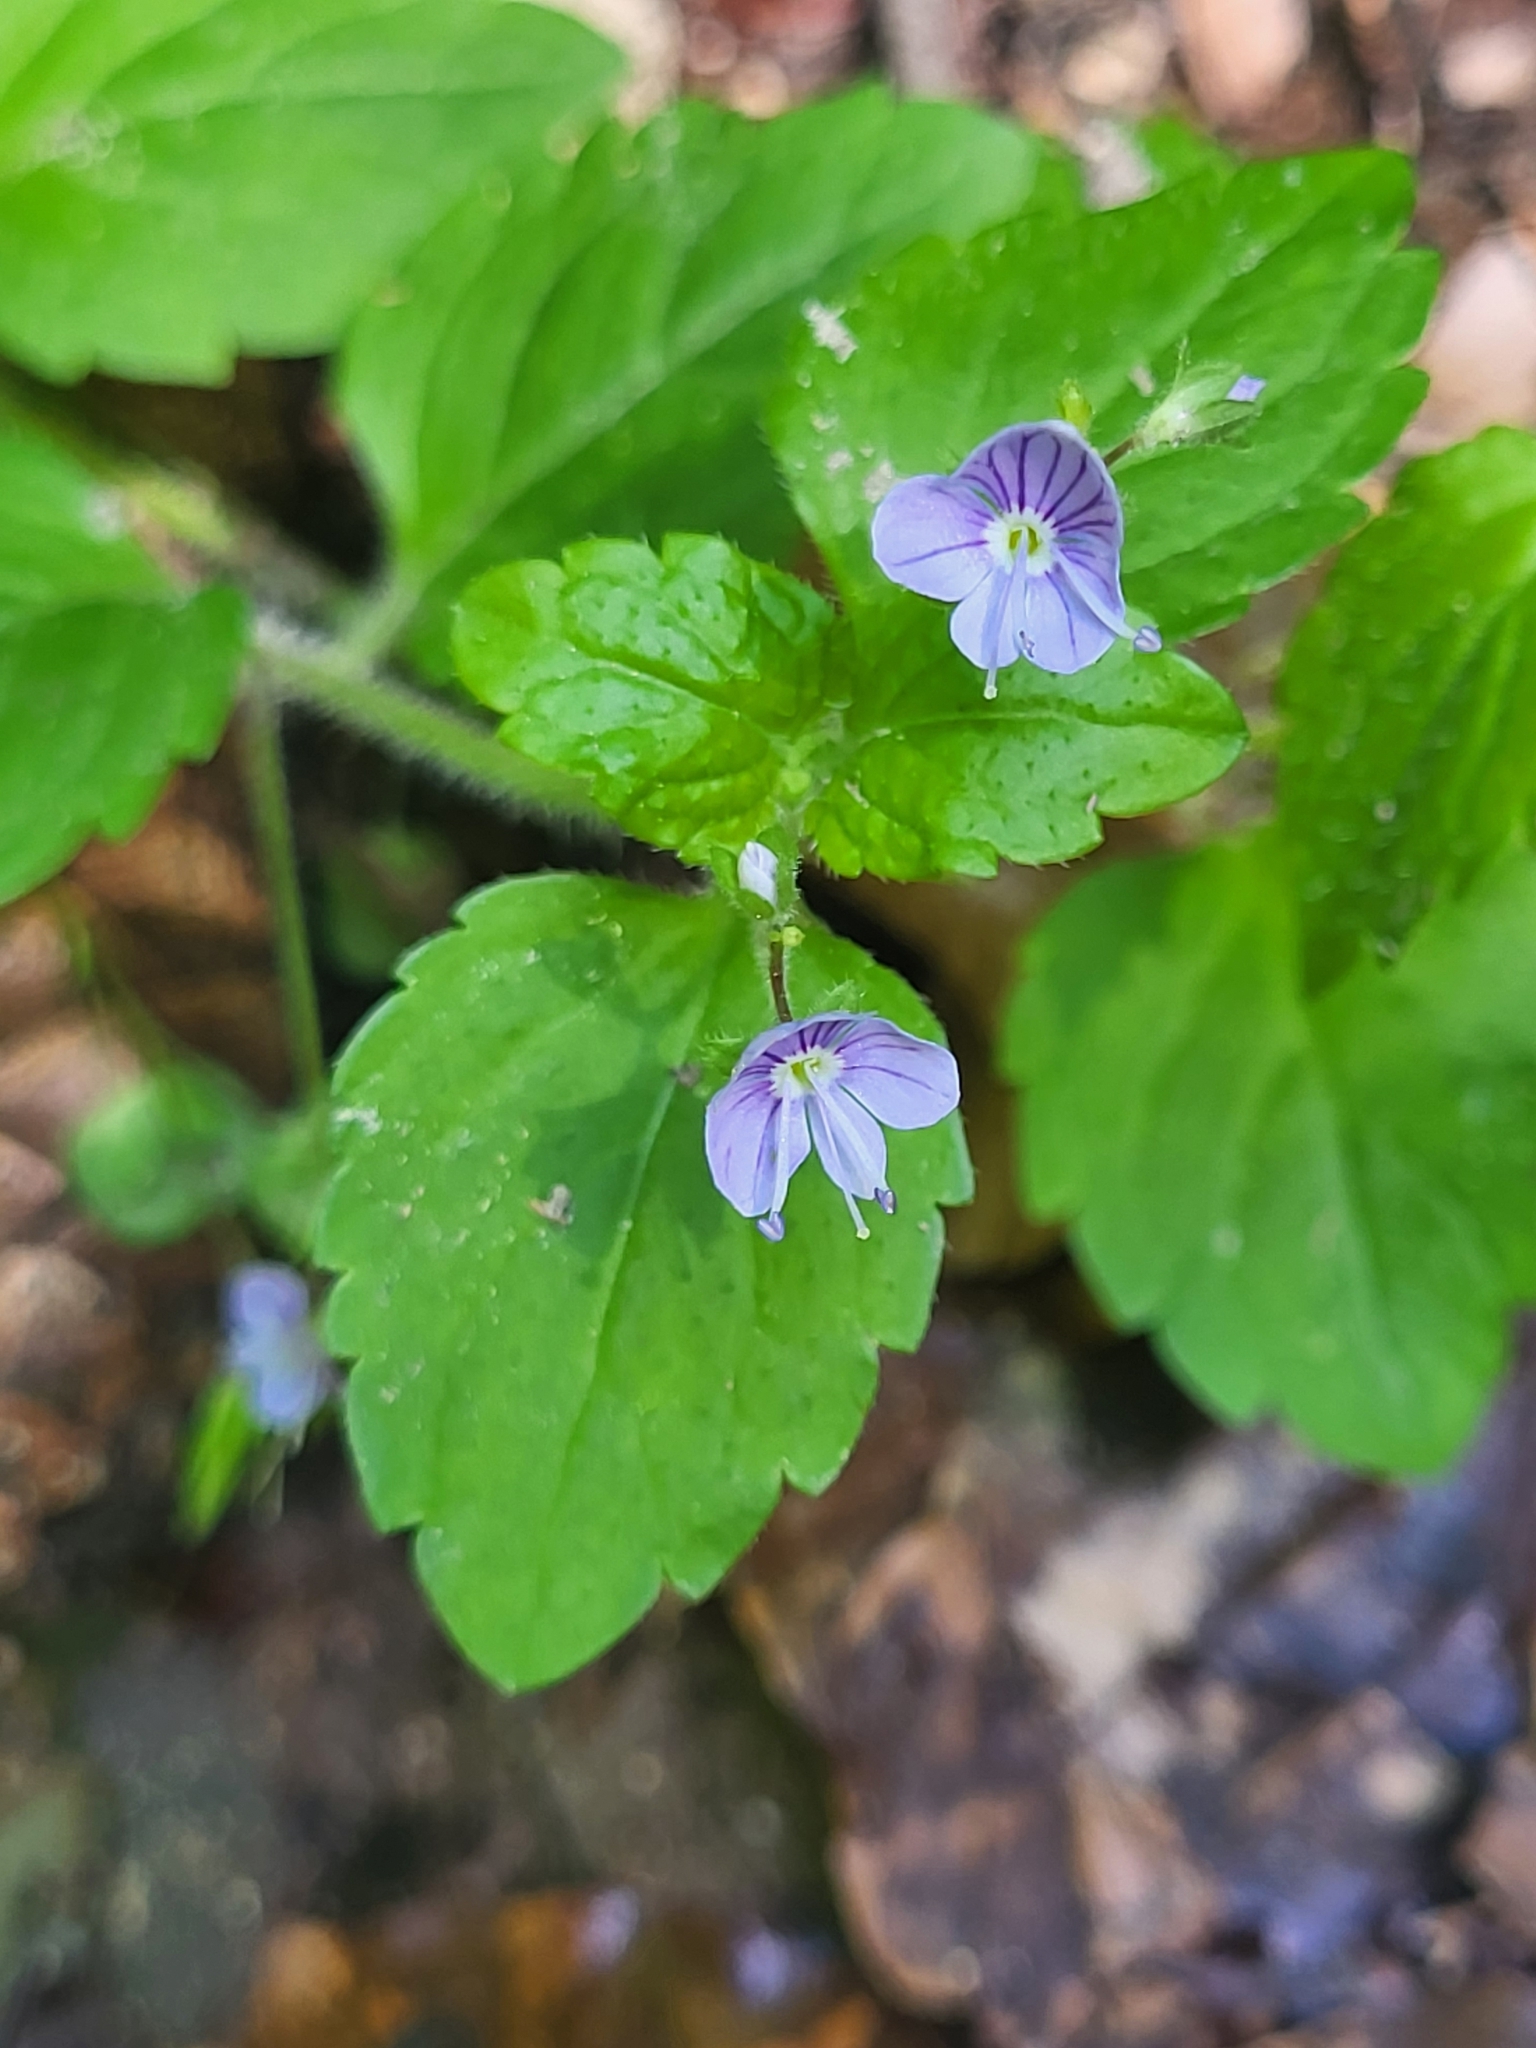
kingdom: Plantae
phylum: Tracheophyta
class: Magnoliopsida
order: Lamiales
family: Plantaginaceae
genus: Veronica
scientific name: Veronica montana
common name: Wood speedwell
